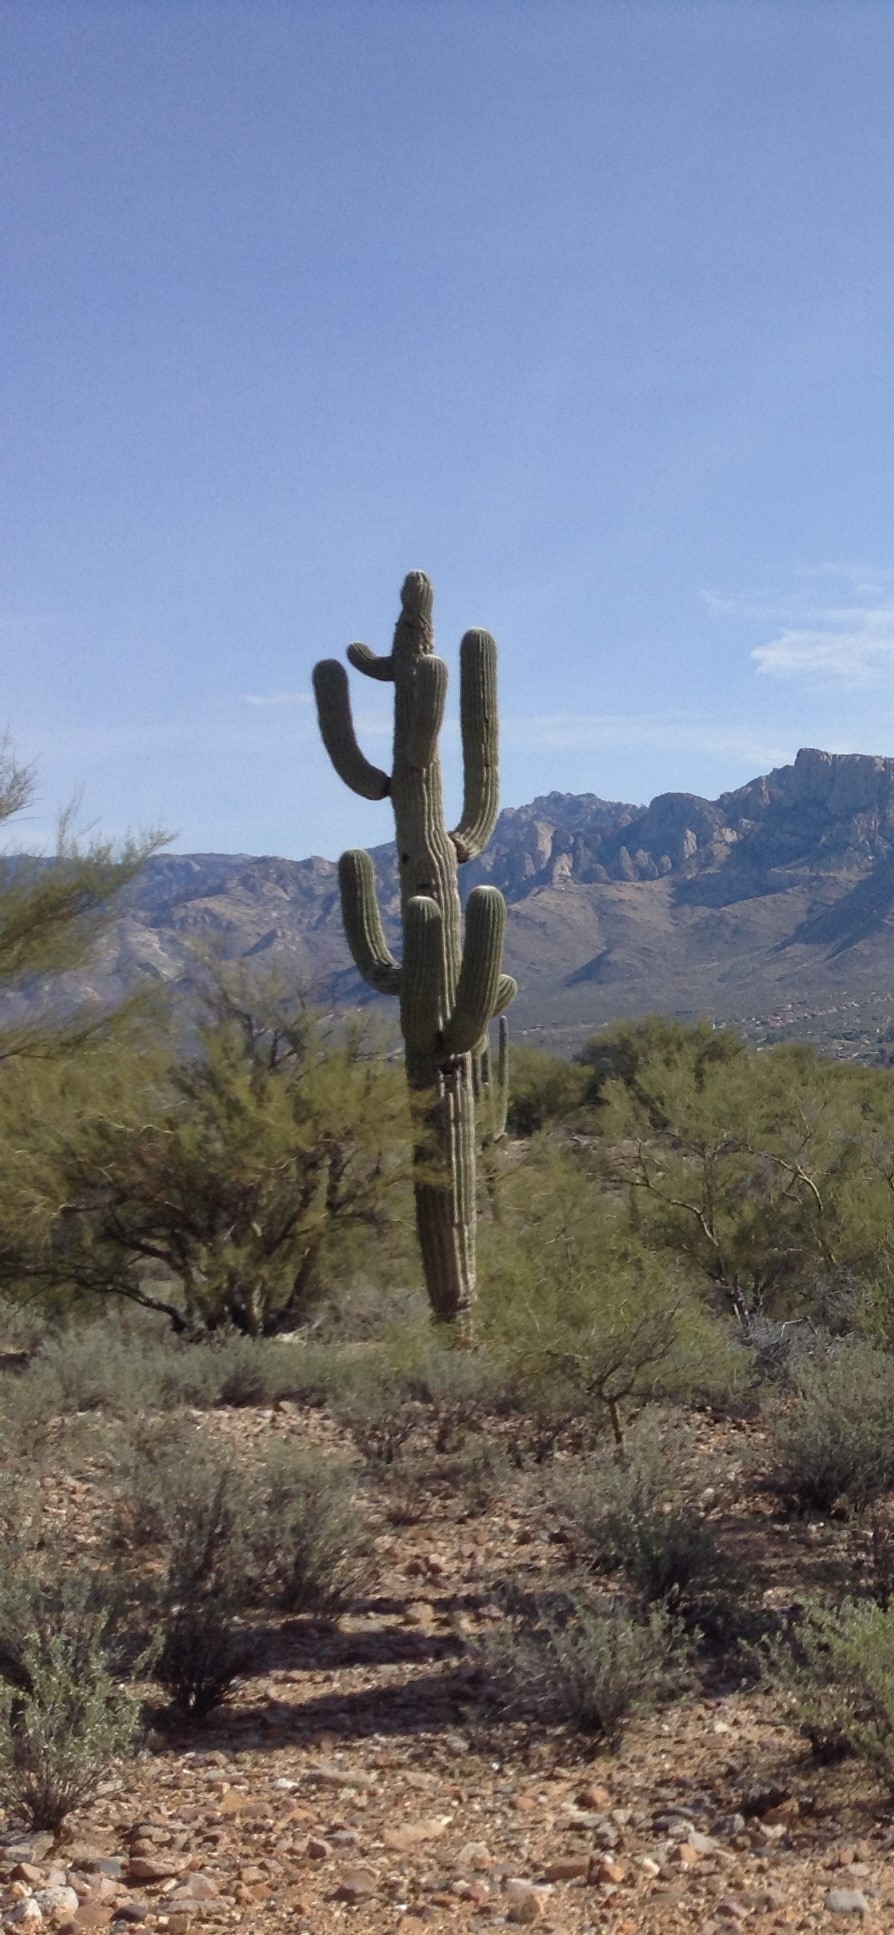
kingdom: Plantae
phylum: Tracheophyta
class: Magnoliopsida
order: Caryophyllales
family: Cactaceae
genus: Carnegiea
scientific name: Carnegiea gigantea
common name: Saguaro
